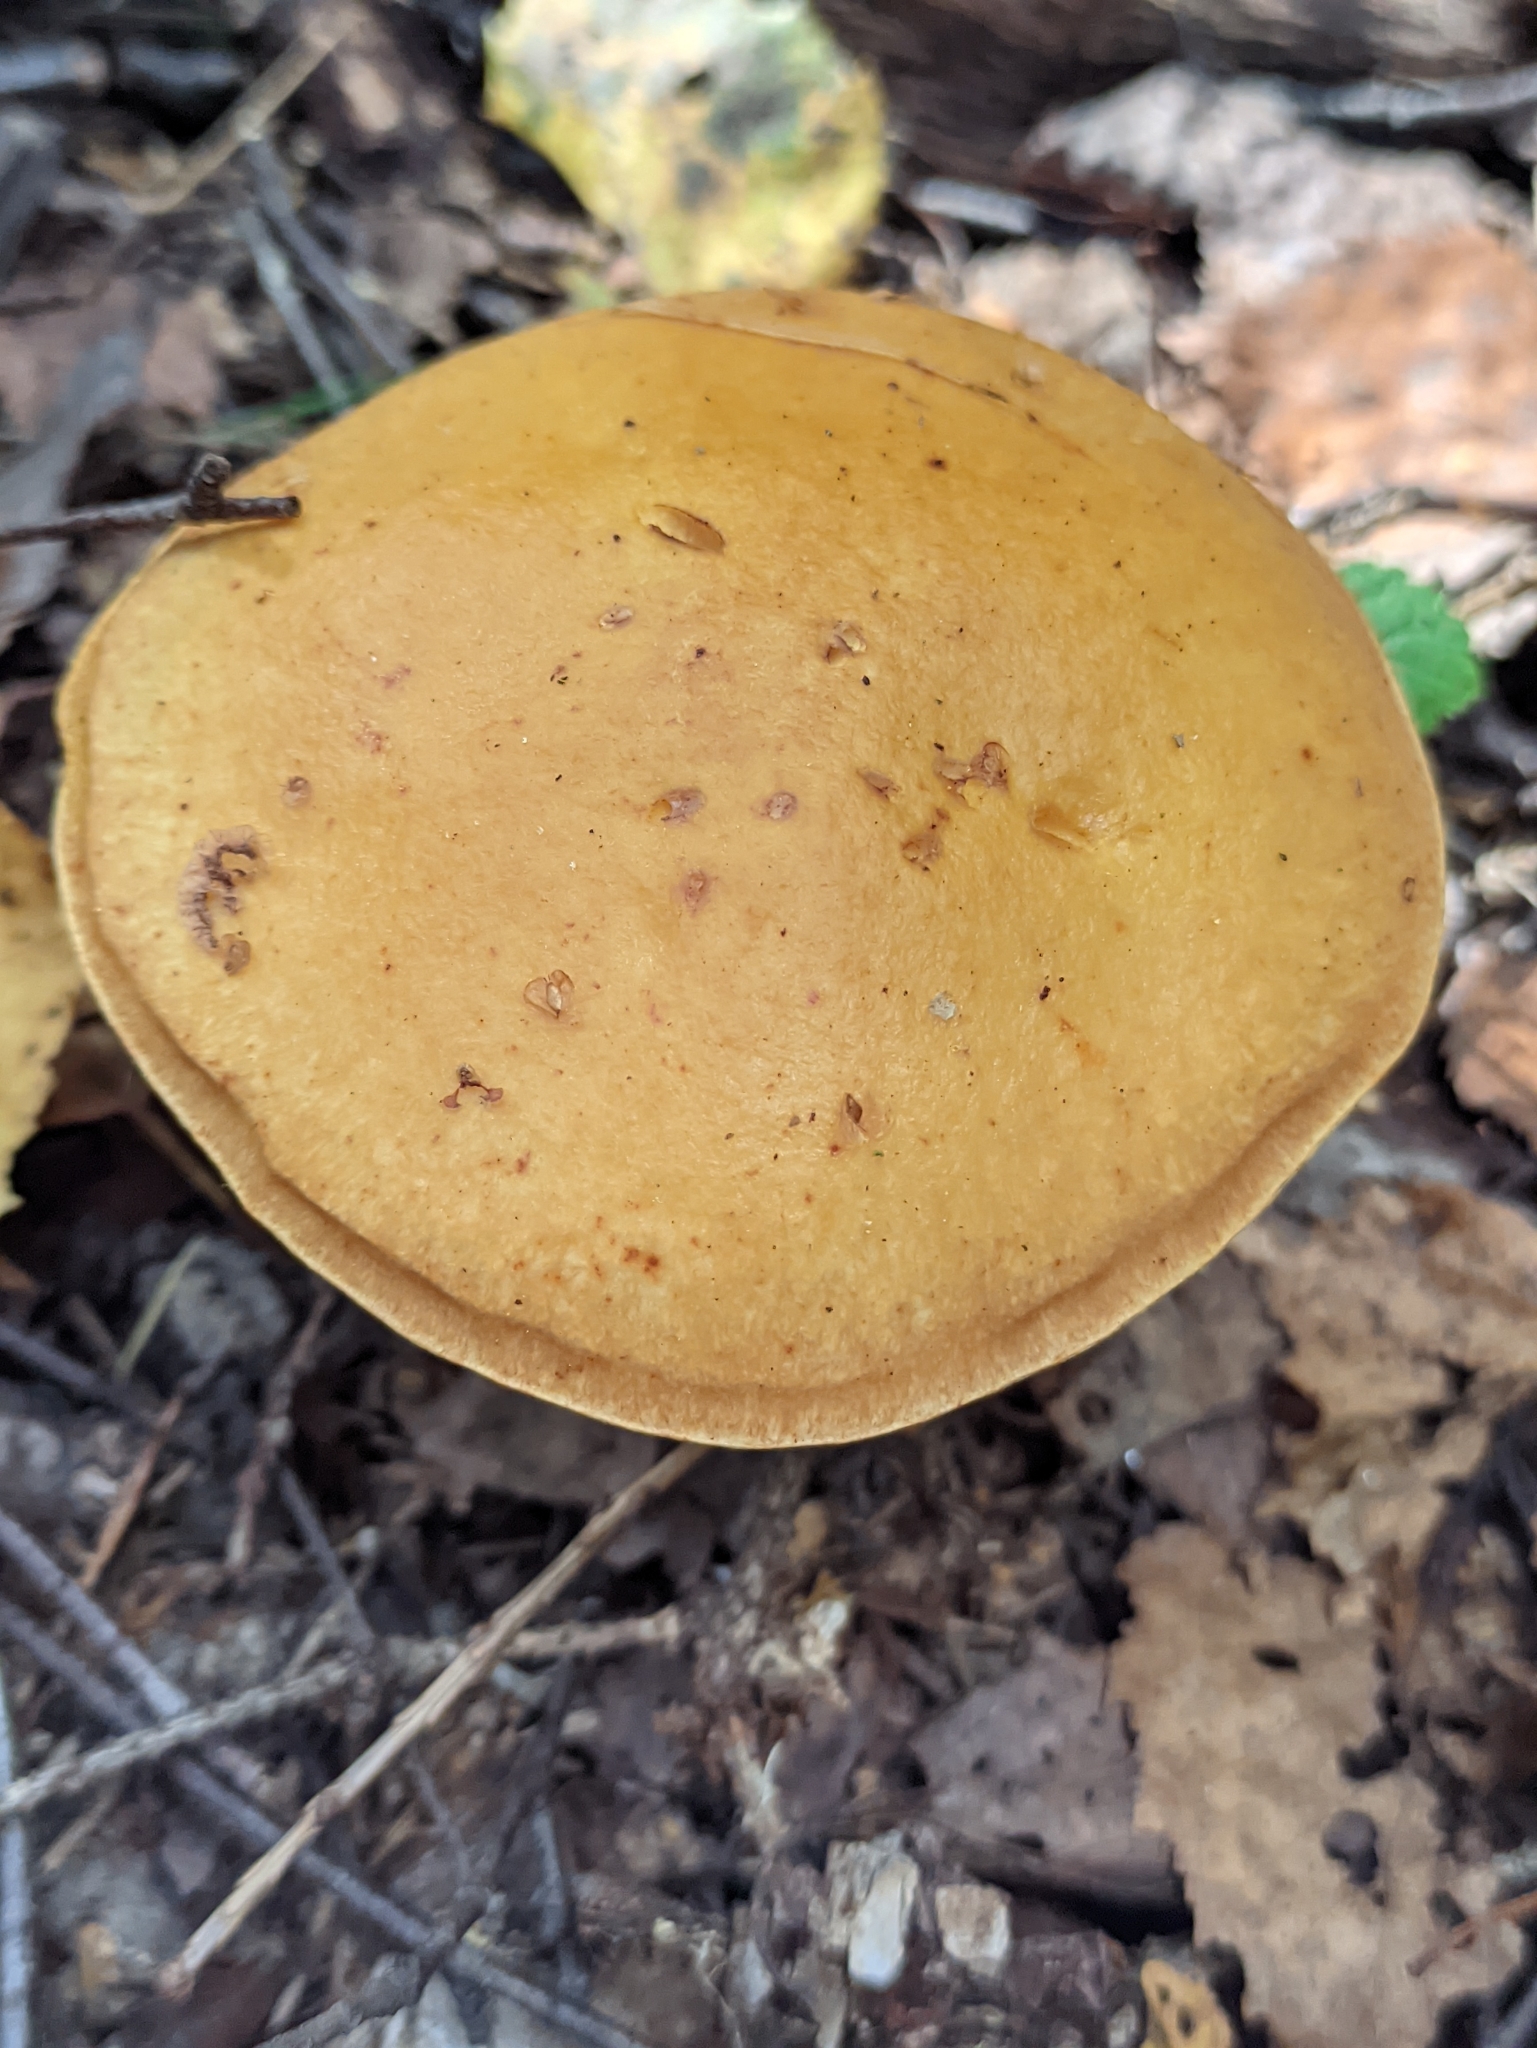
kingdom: Fungi
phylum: Basidiomycota
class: Agaricomycetes
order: Boletales
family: Suillaceae
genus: Suillus
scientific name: Suillus grevillei
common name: Larch bolete
